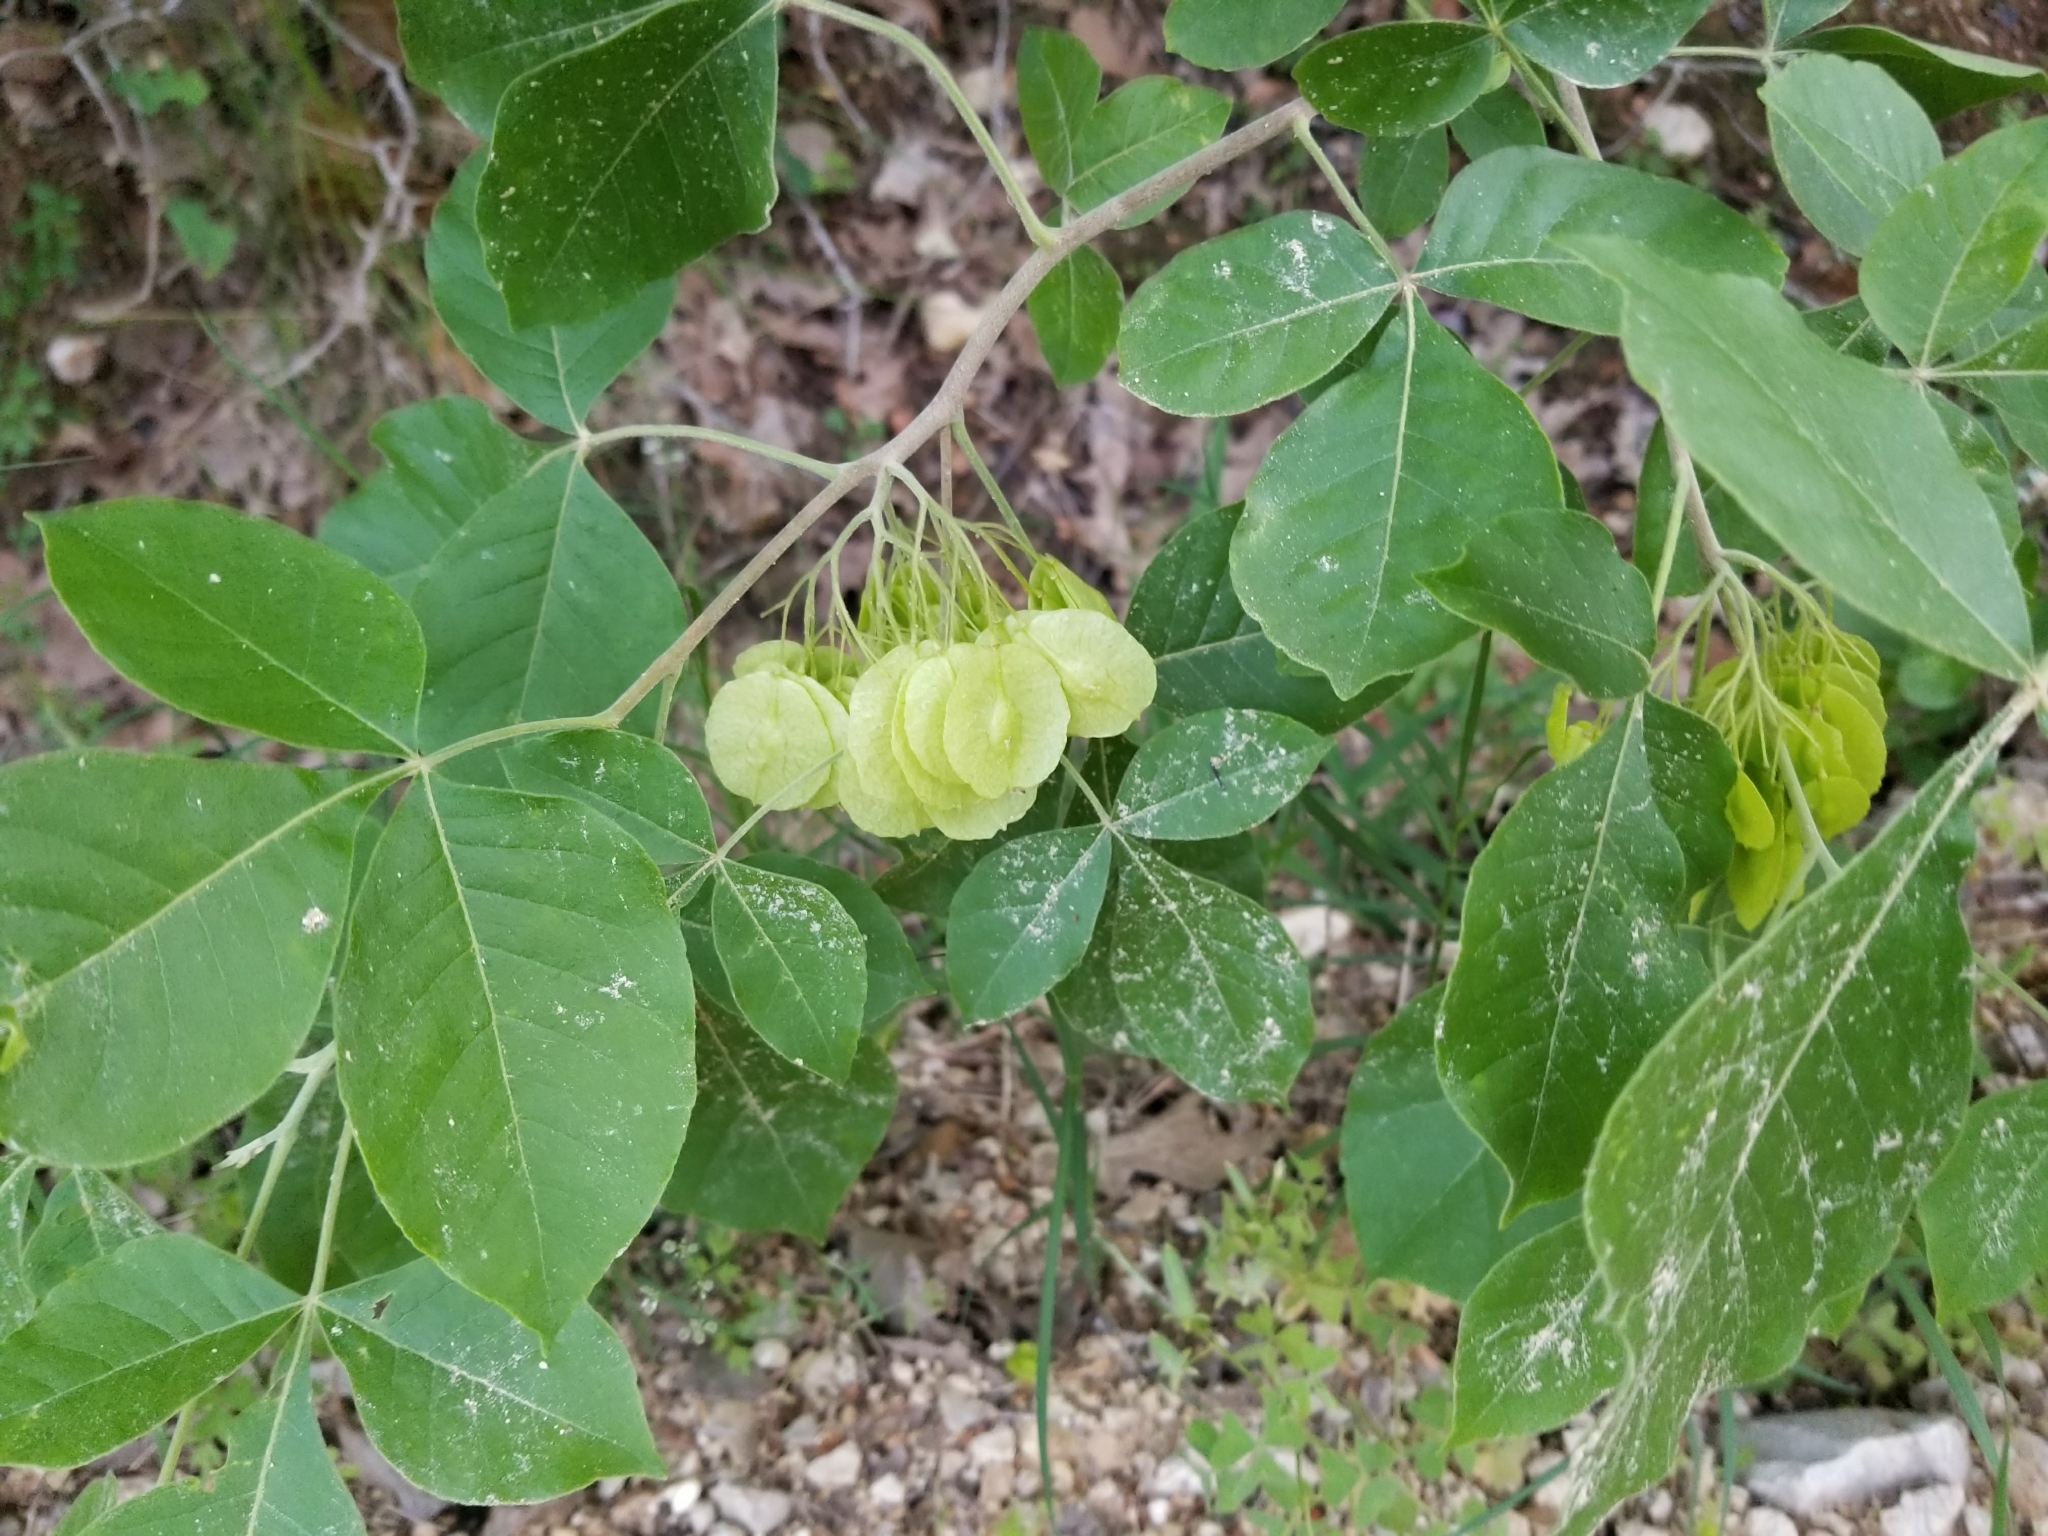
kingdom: Plantae
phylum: Tracheophyta
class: Magnoliopsida
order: Sapindales
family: Rutaceae
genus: Ptelea
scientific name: Ptelea trifoliata
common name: Common hop-tree
